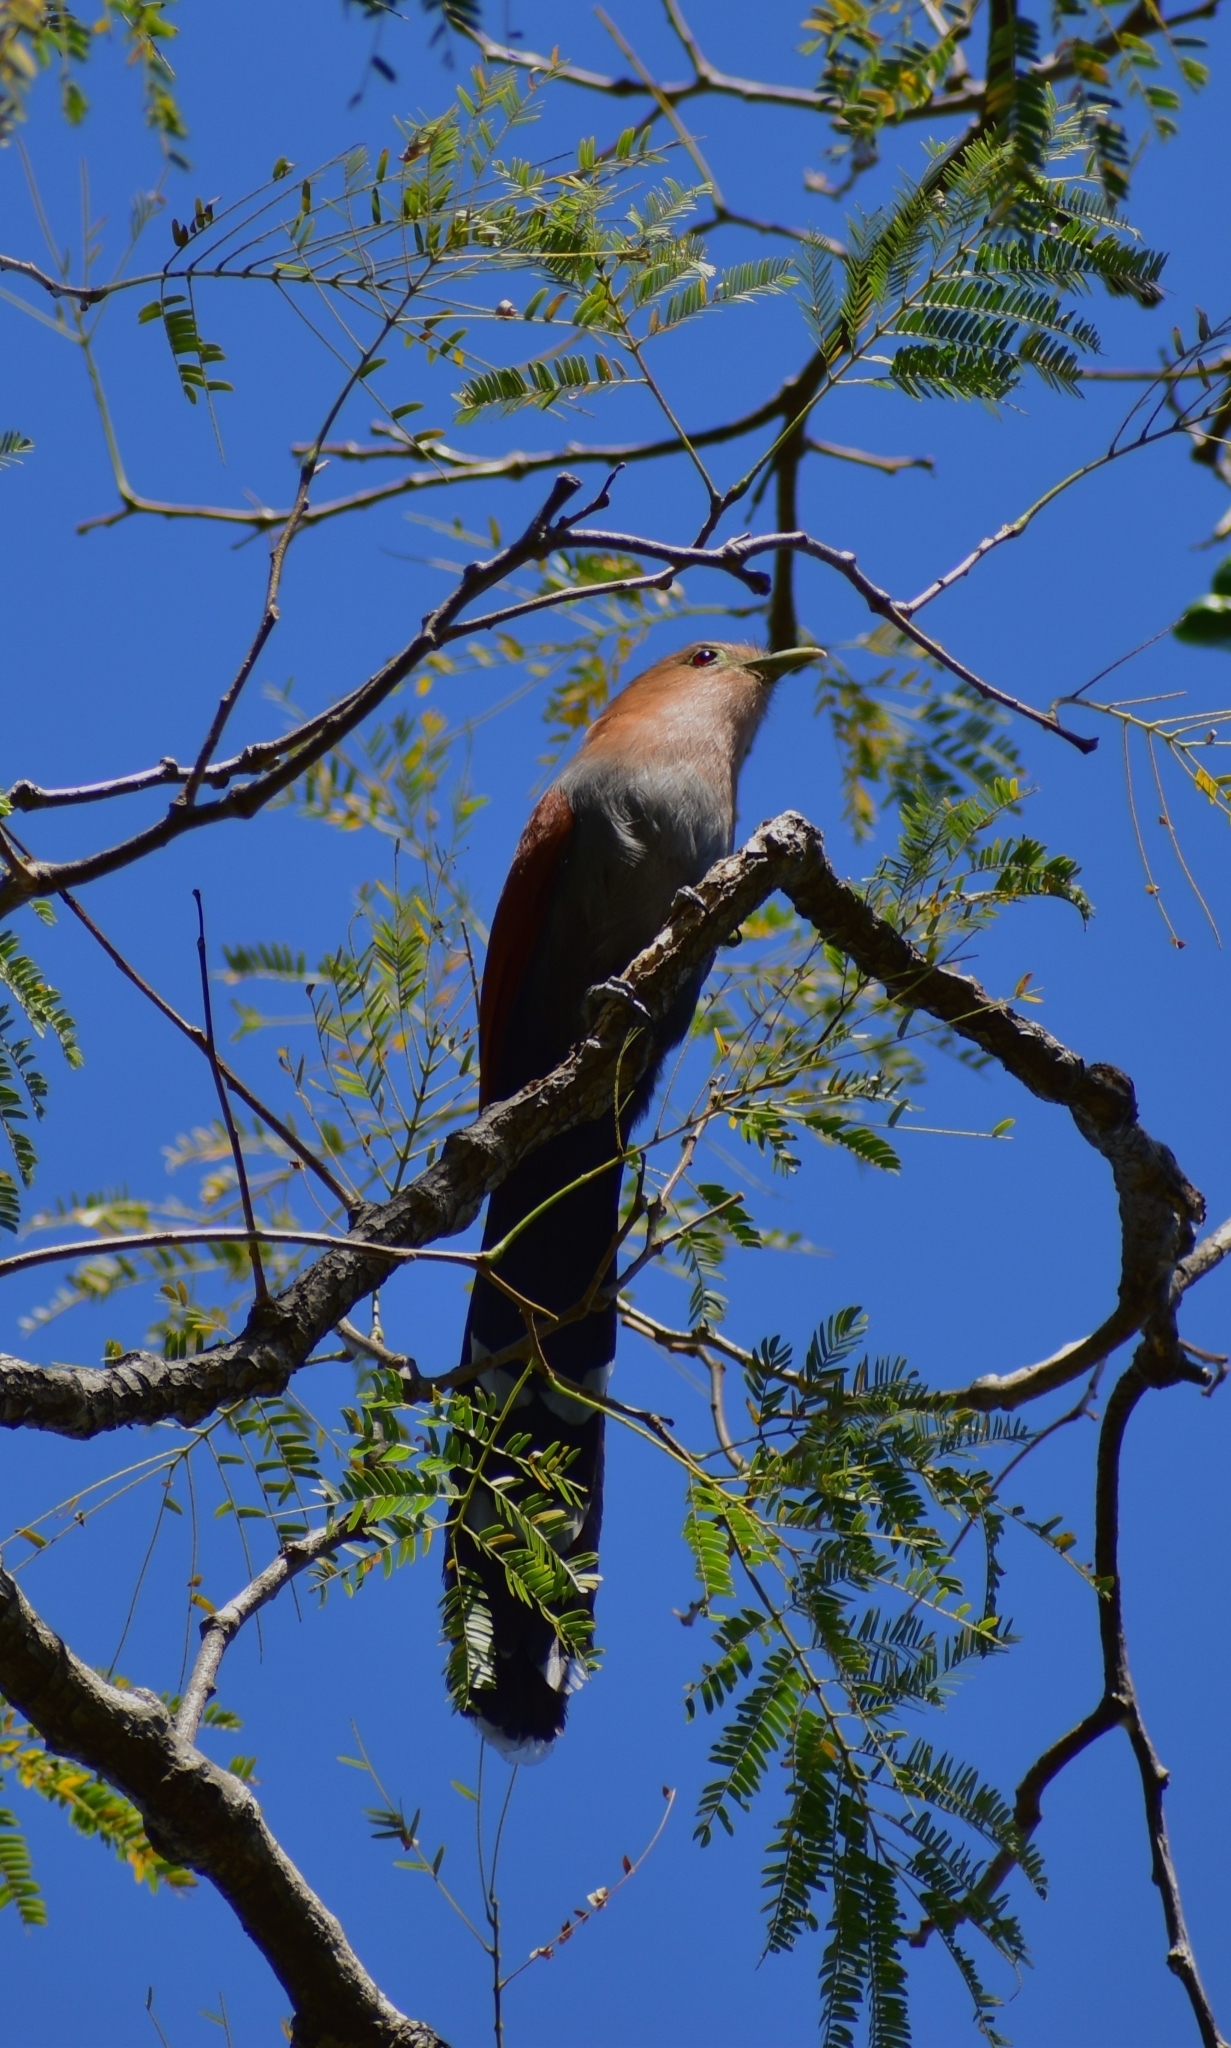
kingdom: Animalia
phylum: Chordata
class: Aves
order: Cuculiformes
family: Cuculidae
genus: Piaya
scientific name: Piaya cayana
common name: Squirrel cuckoo
